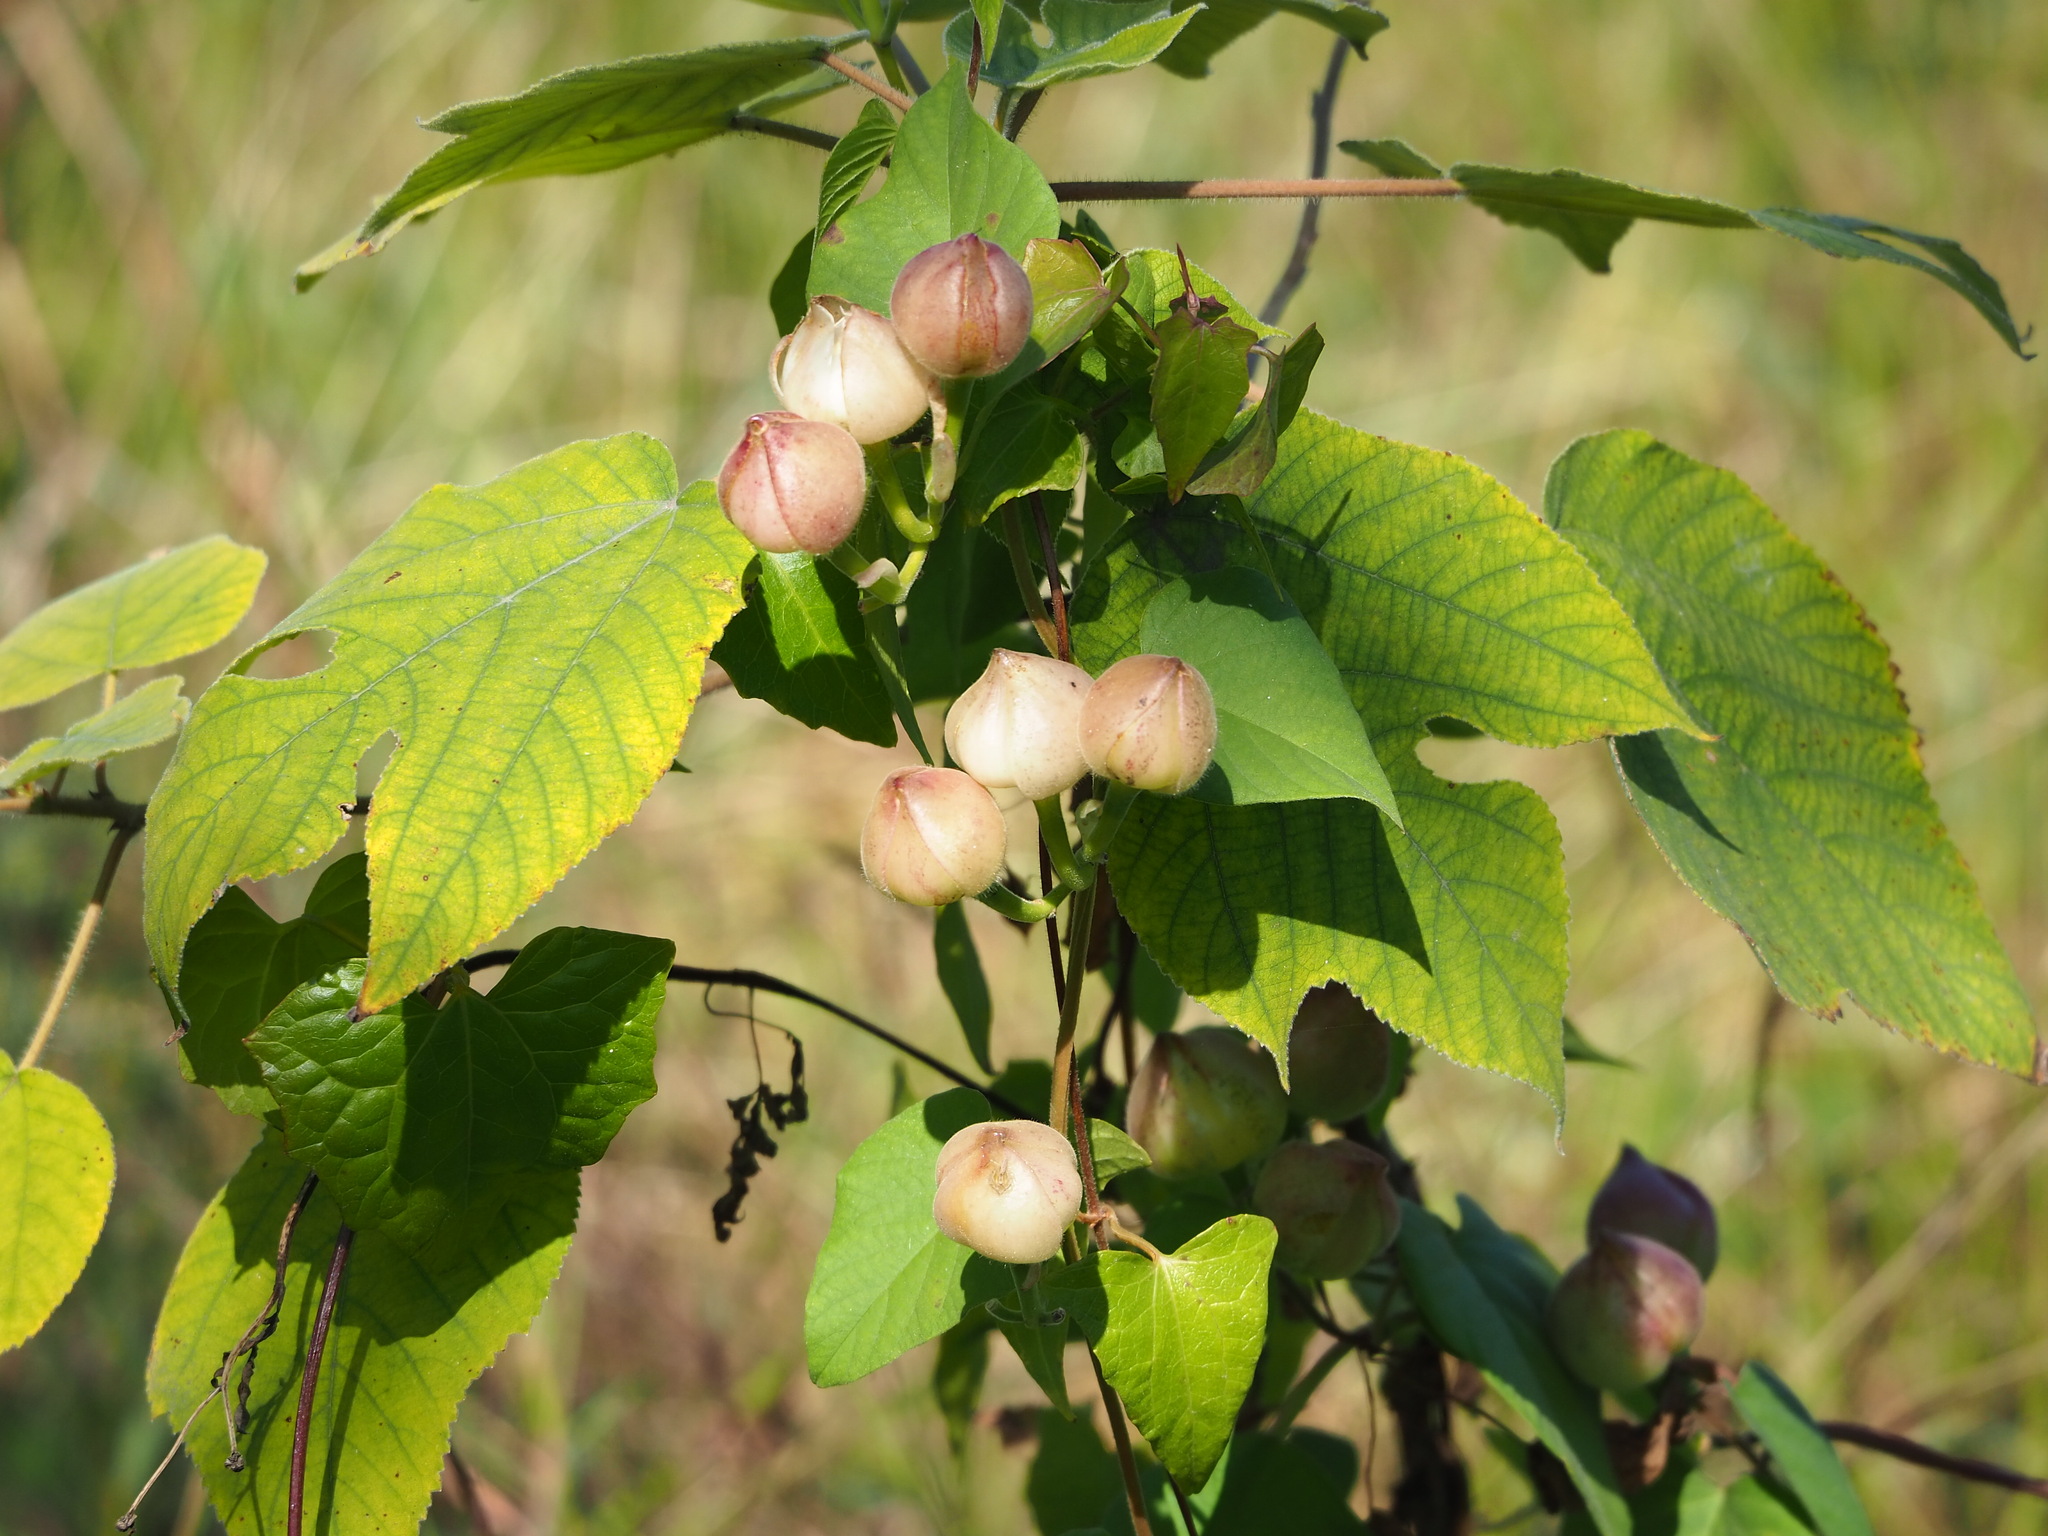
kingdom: Plantae
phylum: Tracheophyta
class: Magnoliopsida
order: Solanales
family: Convolvulaceae
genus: Operculina
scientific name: Operculina turpethum
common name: Transparent wood-rose
